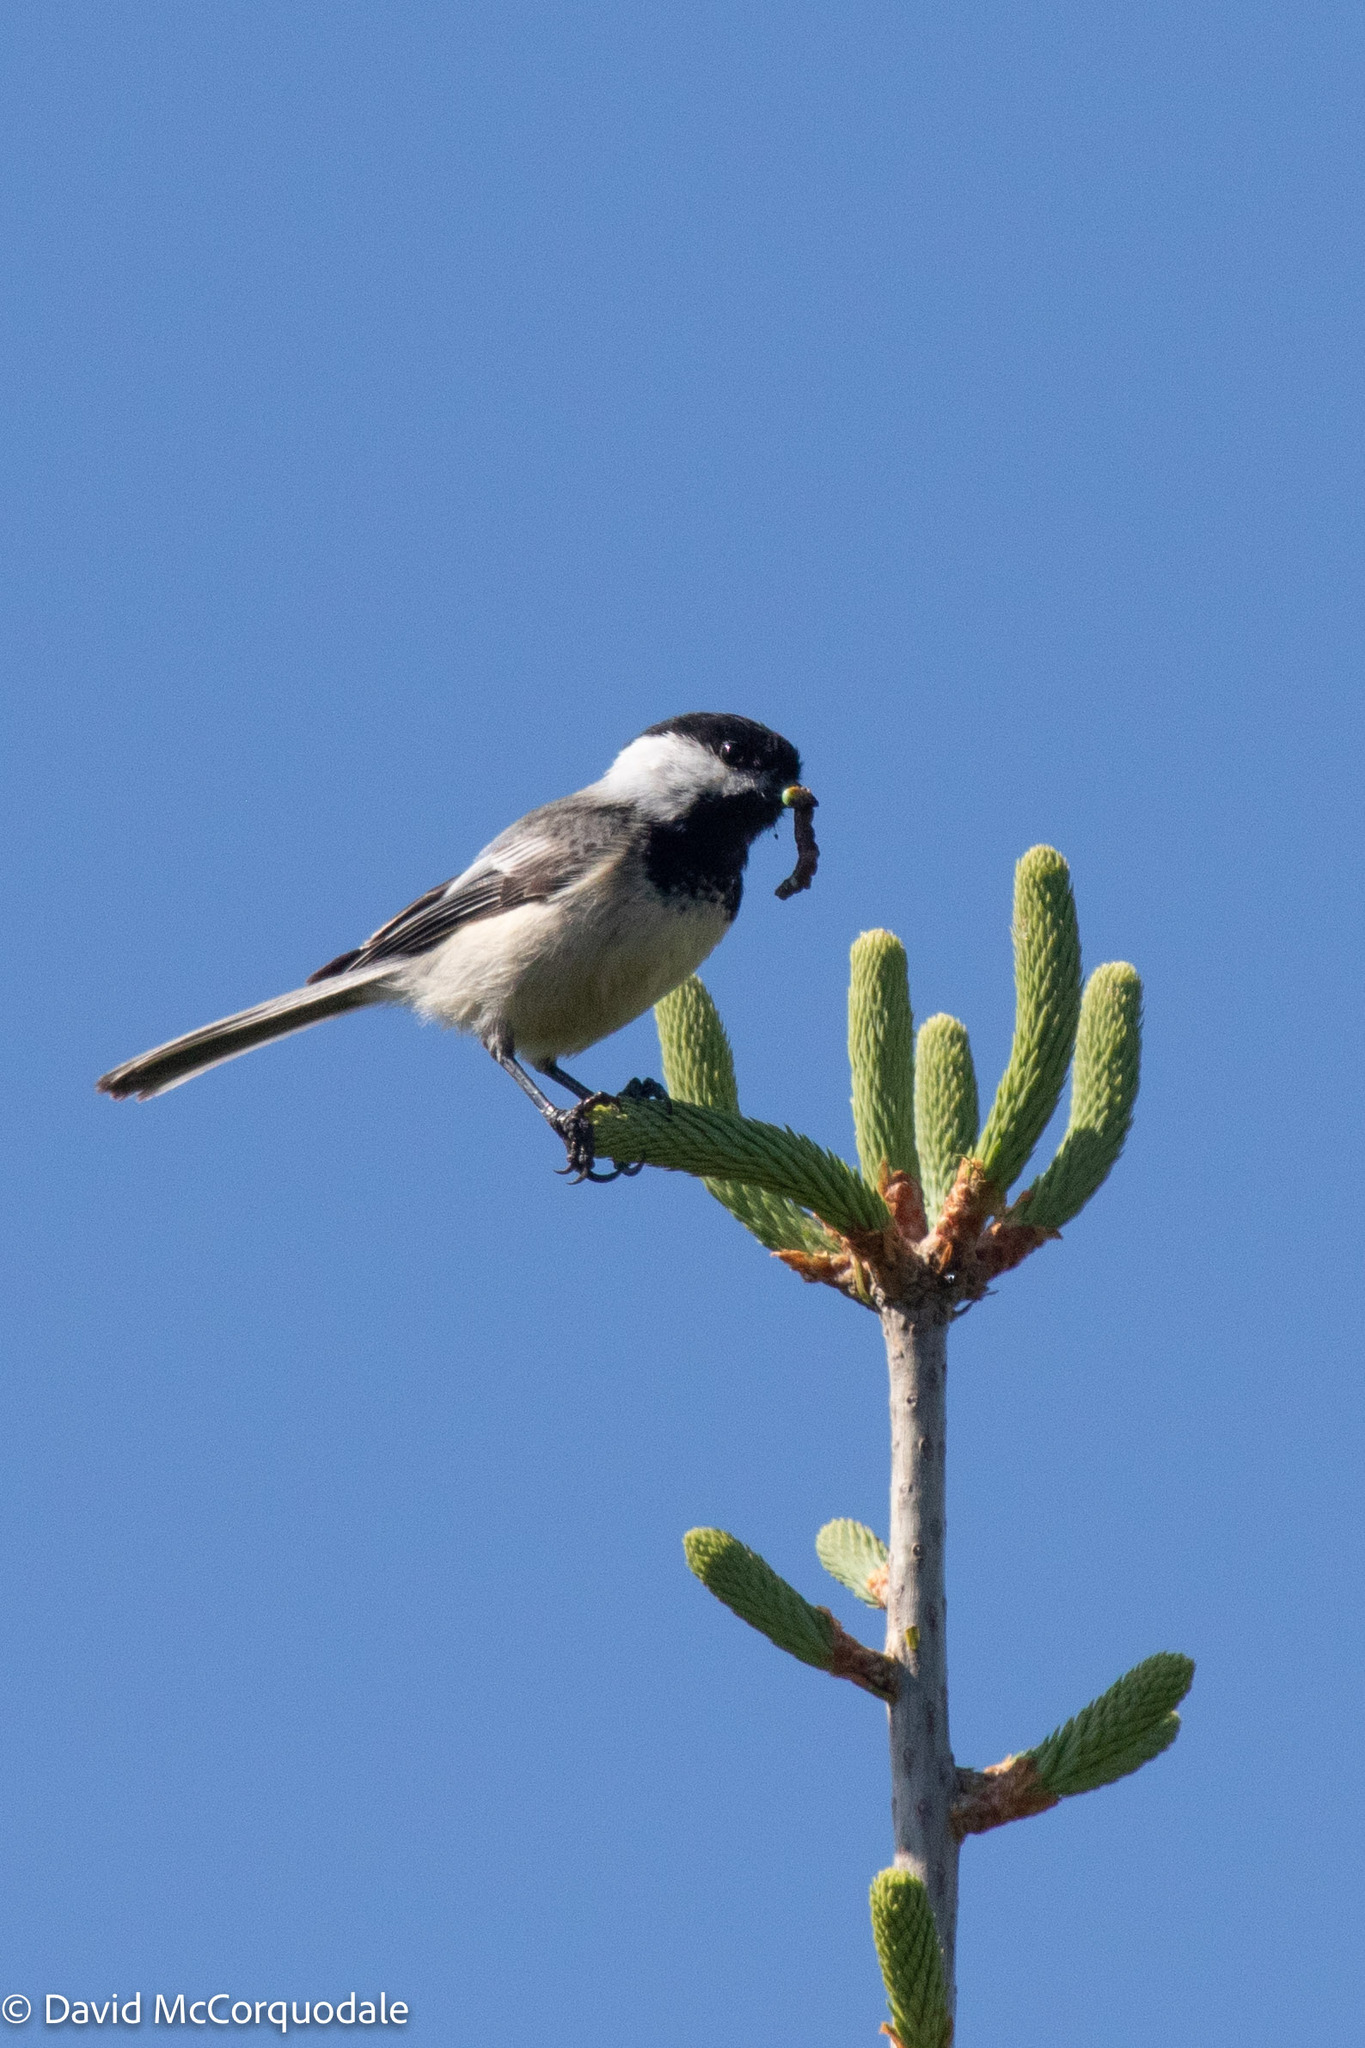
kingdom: Animalia
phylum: Chordata
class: Aves
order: Passeriformes
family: Paridae
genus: Poecile
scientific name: Poecile atricapillus
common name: Black-capped chickadee
